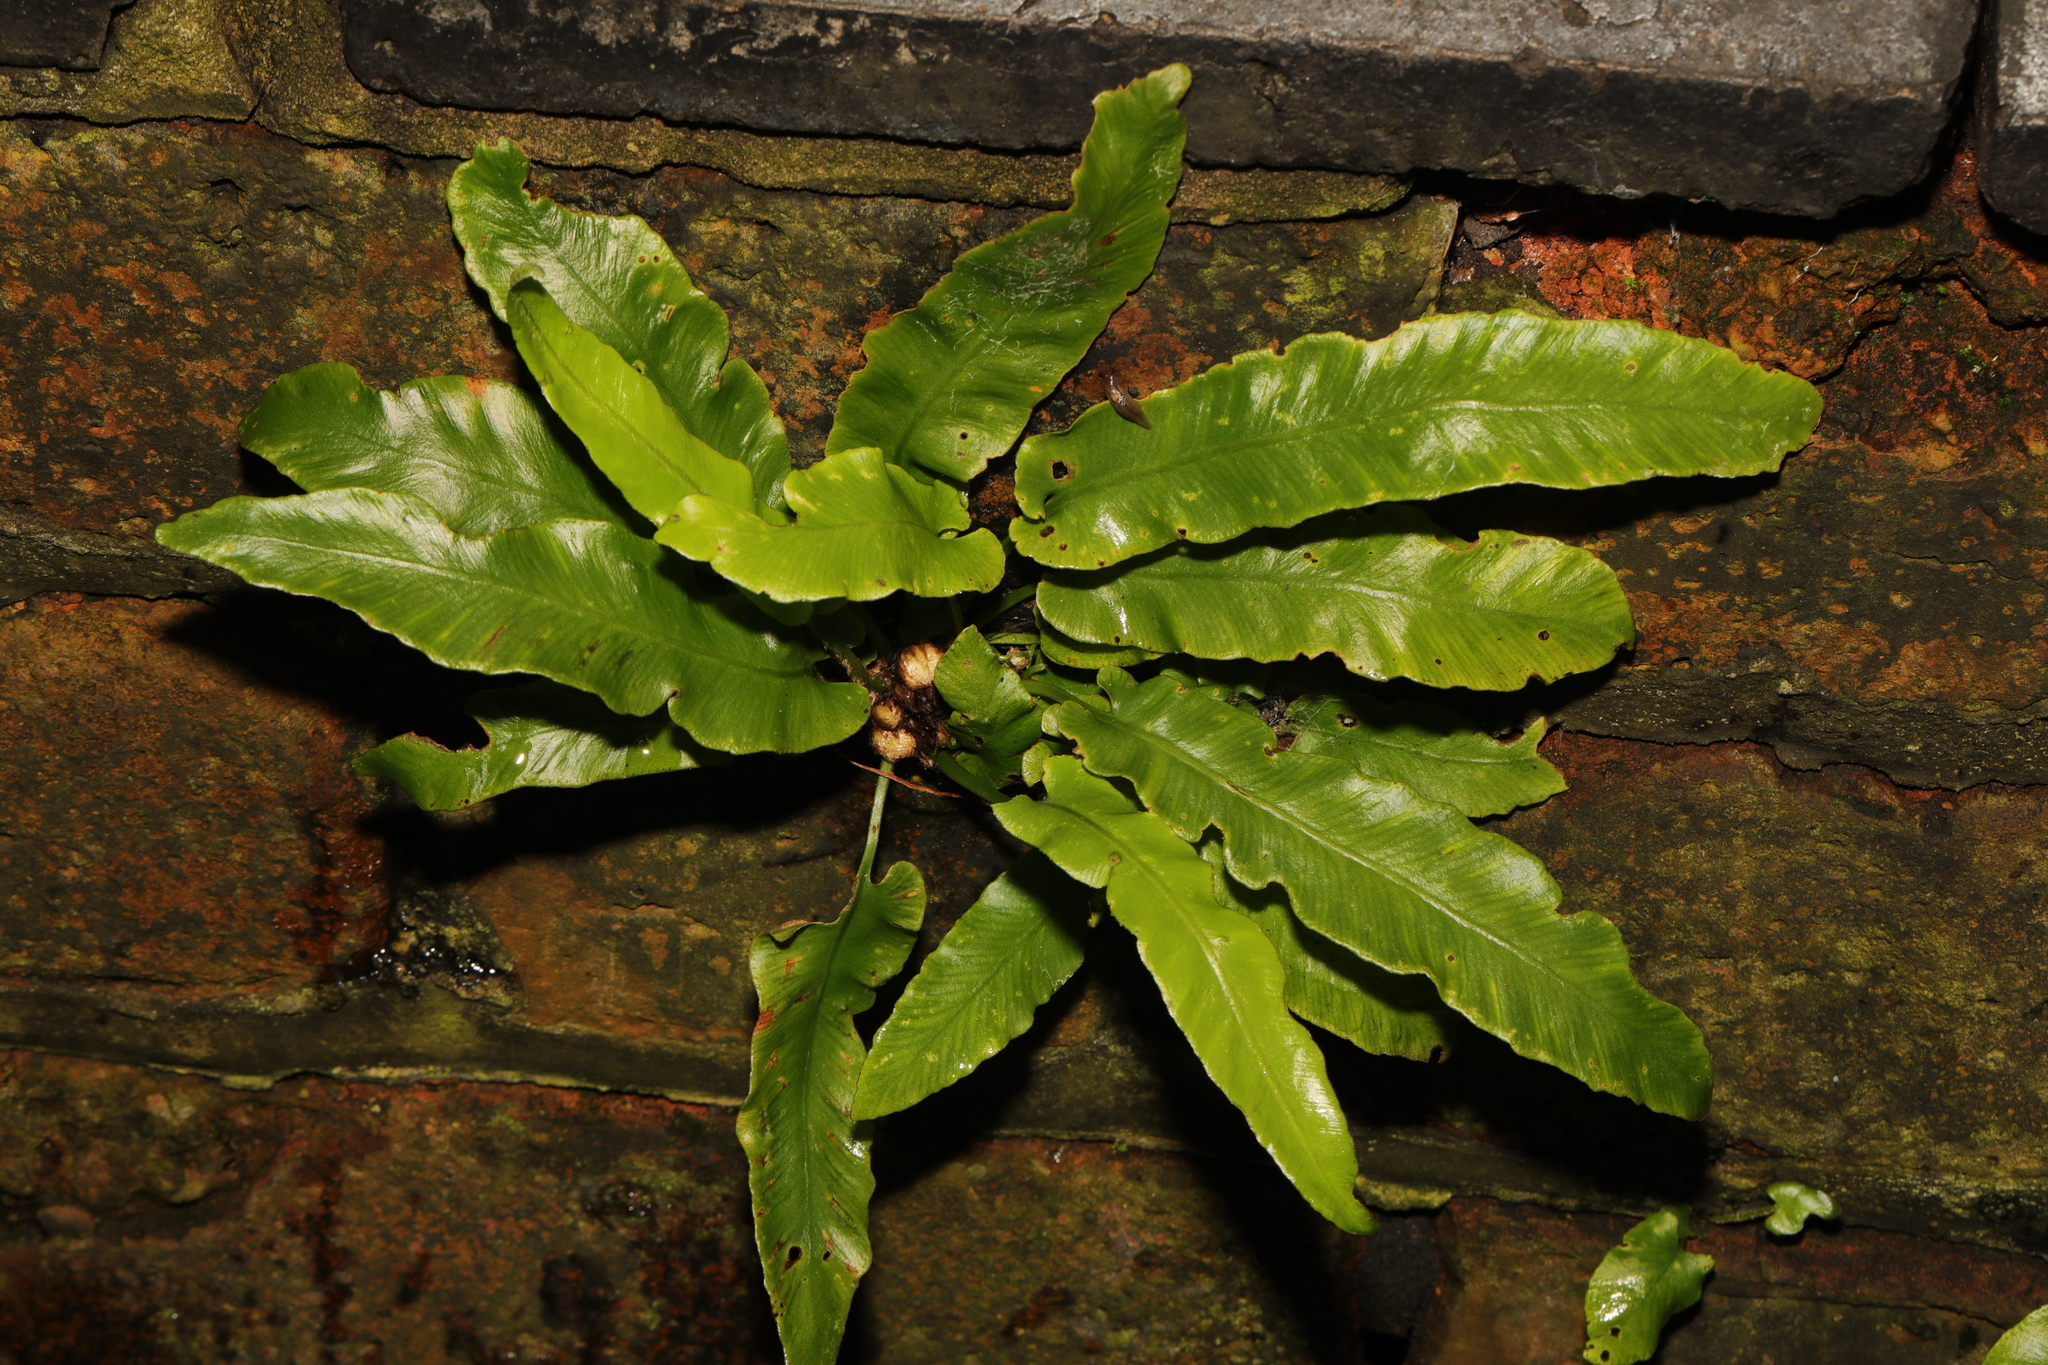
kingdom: Plantae
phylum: Tracheophyta
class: Polypodiopsida
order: Polypodiales
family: Aspleniaceae
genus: Asplenium
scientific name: Asplenium scolopendrium
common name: Hart's-tongue fern
